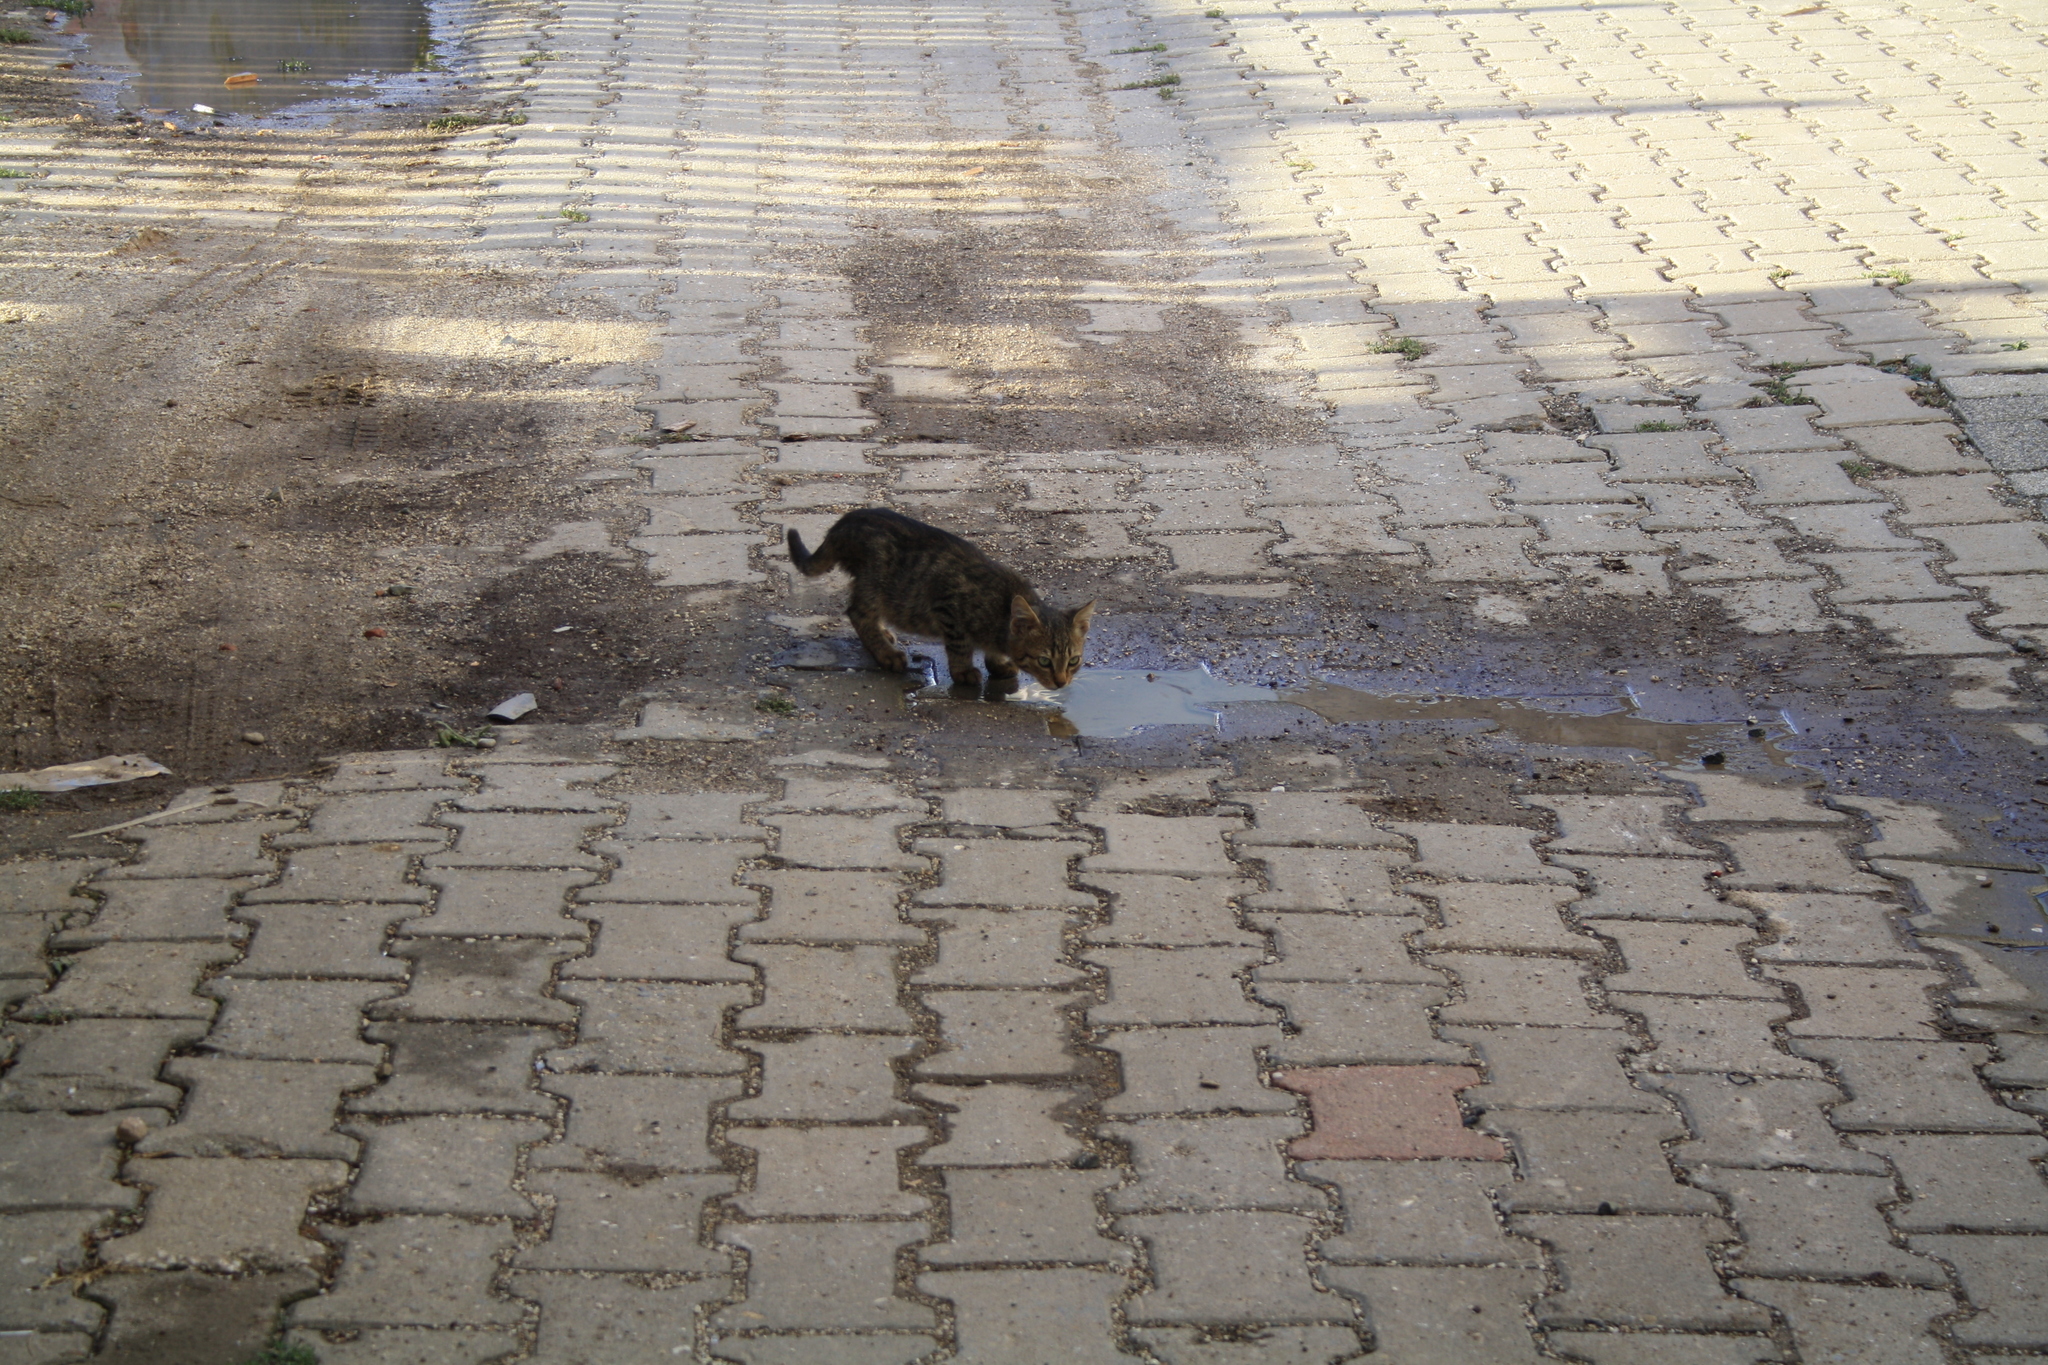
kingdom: Animalia
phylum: Chordata
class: Mammalia
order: Carnivora
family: Felidae
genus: Felis
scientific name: Felis catus
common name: Domestic cat
